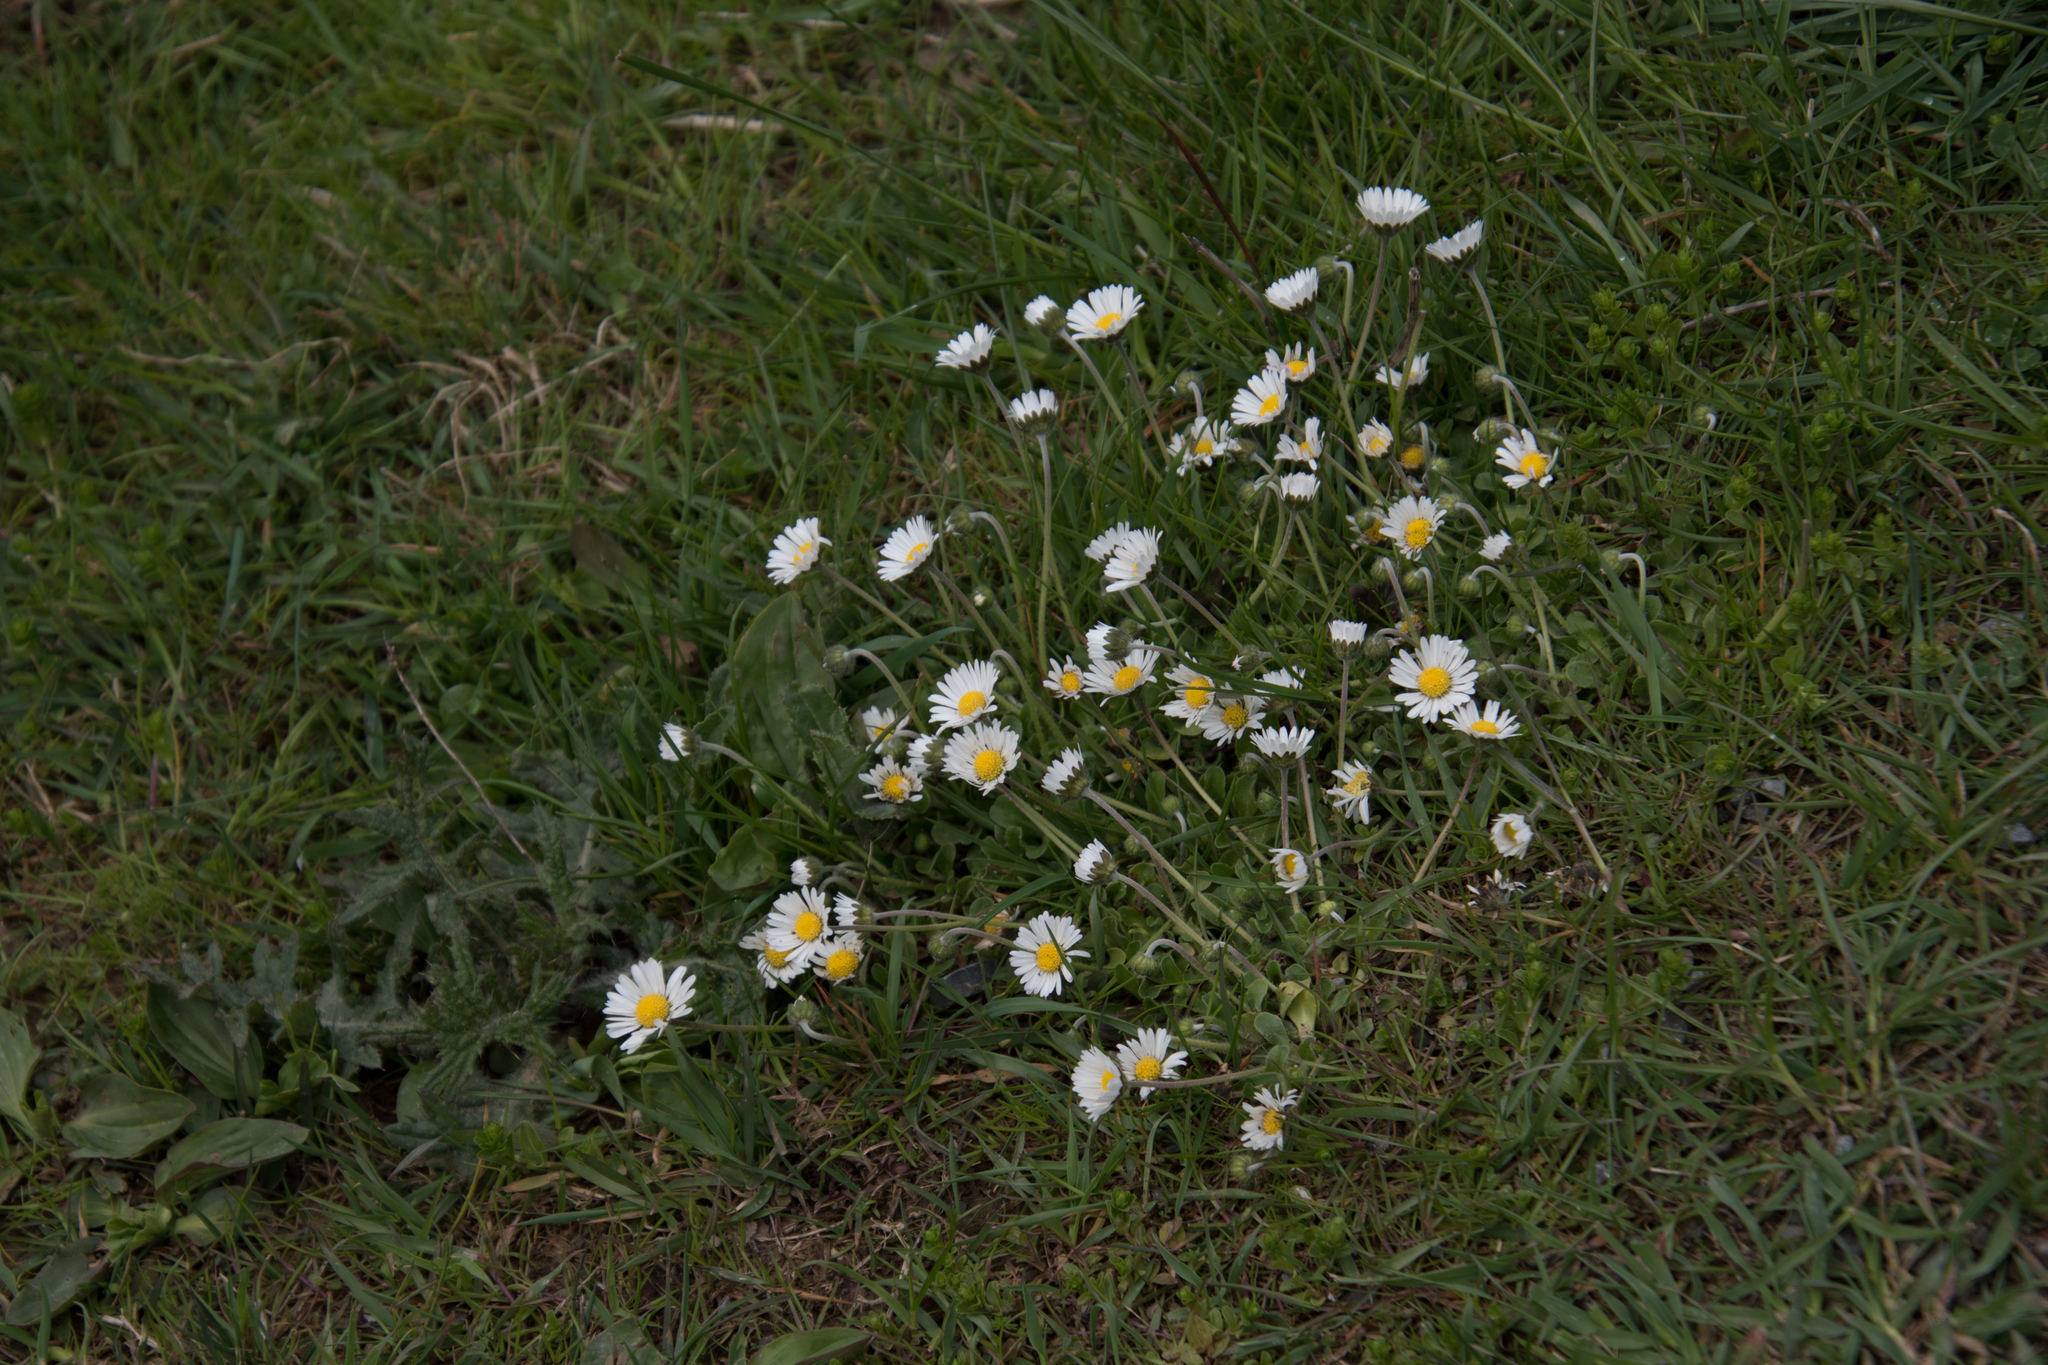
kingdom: Plantae
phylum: Tracheophyta
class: Magnoliopsida
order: Asterales
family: Asteraceae
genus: Bellis
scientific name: Bellis perennis
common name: Lawndaisy
